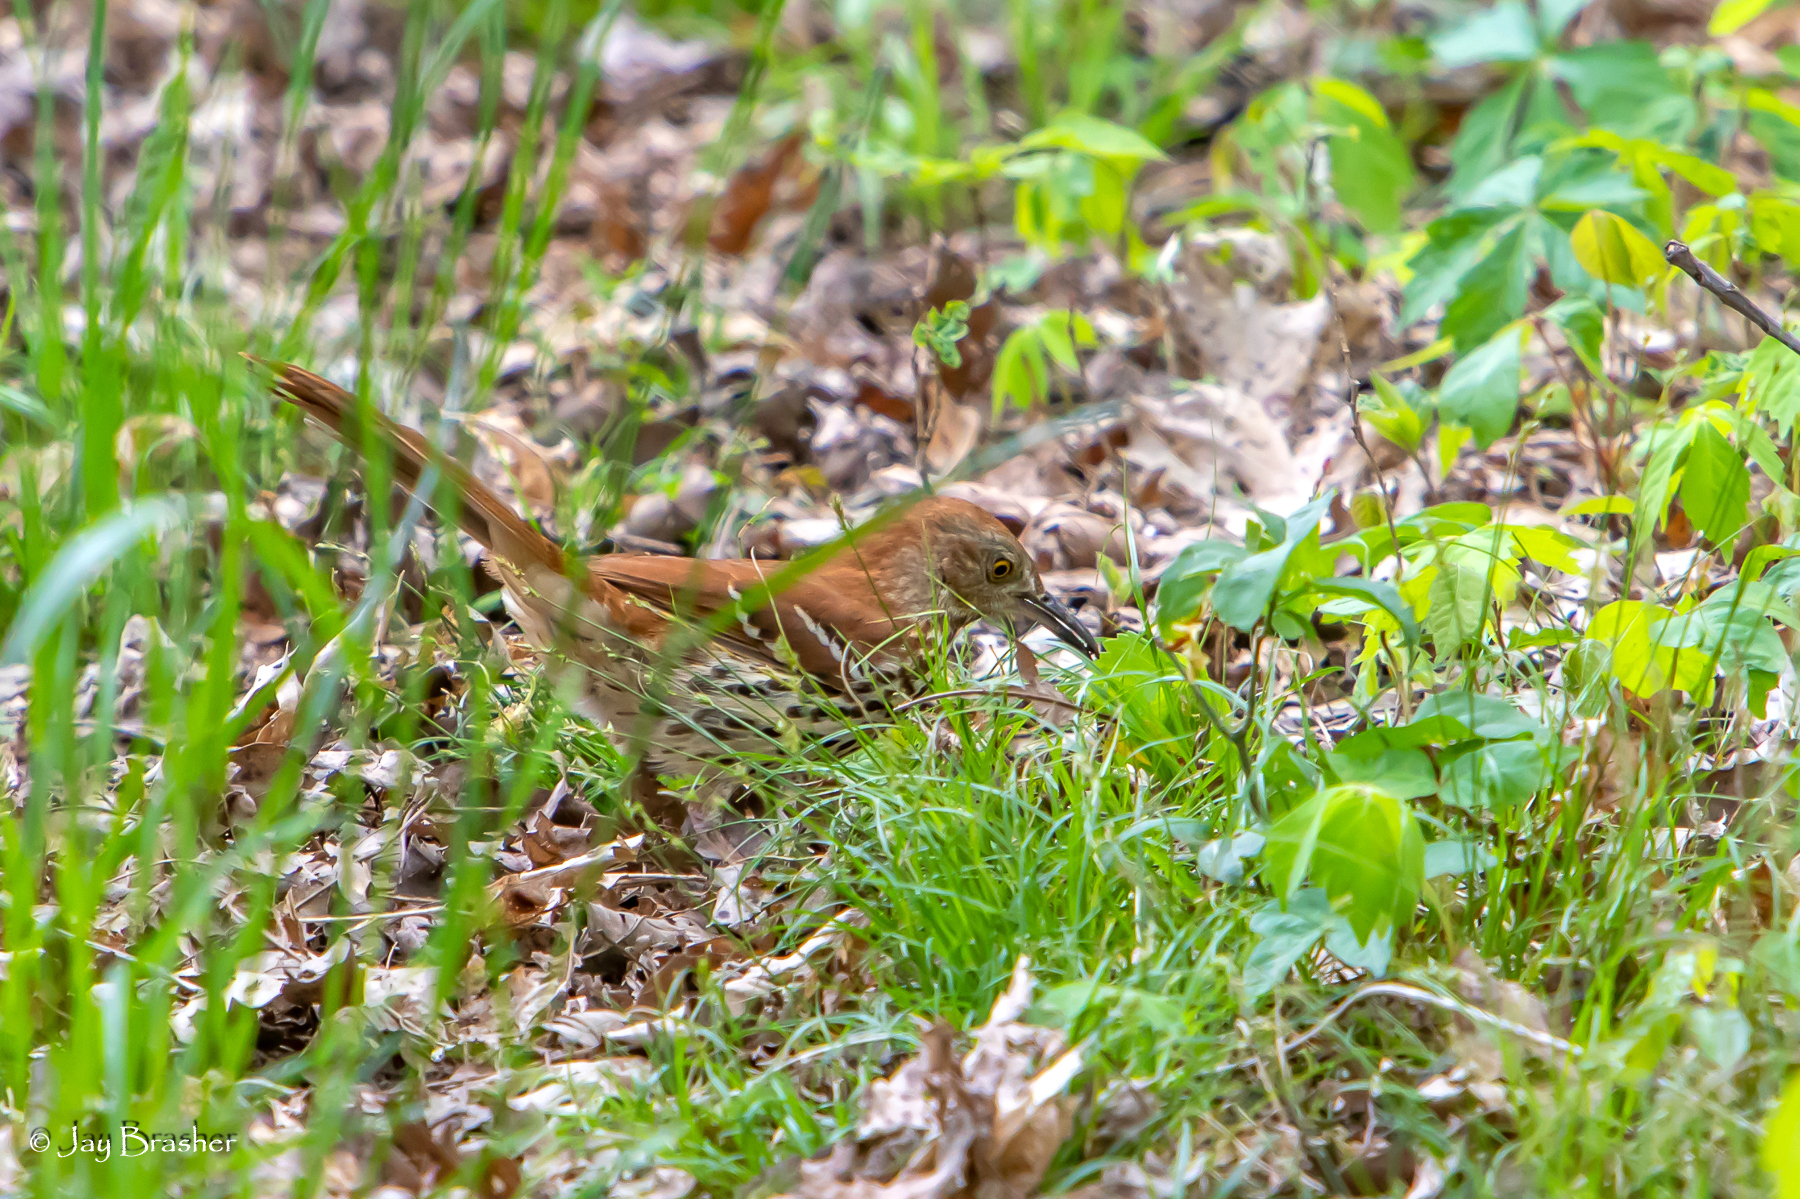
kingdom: Animalia
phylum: Chordata
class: Aves
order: Passeriformes
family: Mimidae
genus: Toxostoma
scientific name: Toxostoma rufum
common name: Brown thrasher
